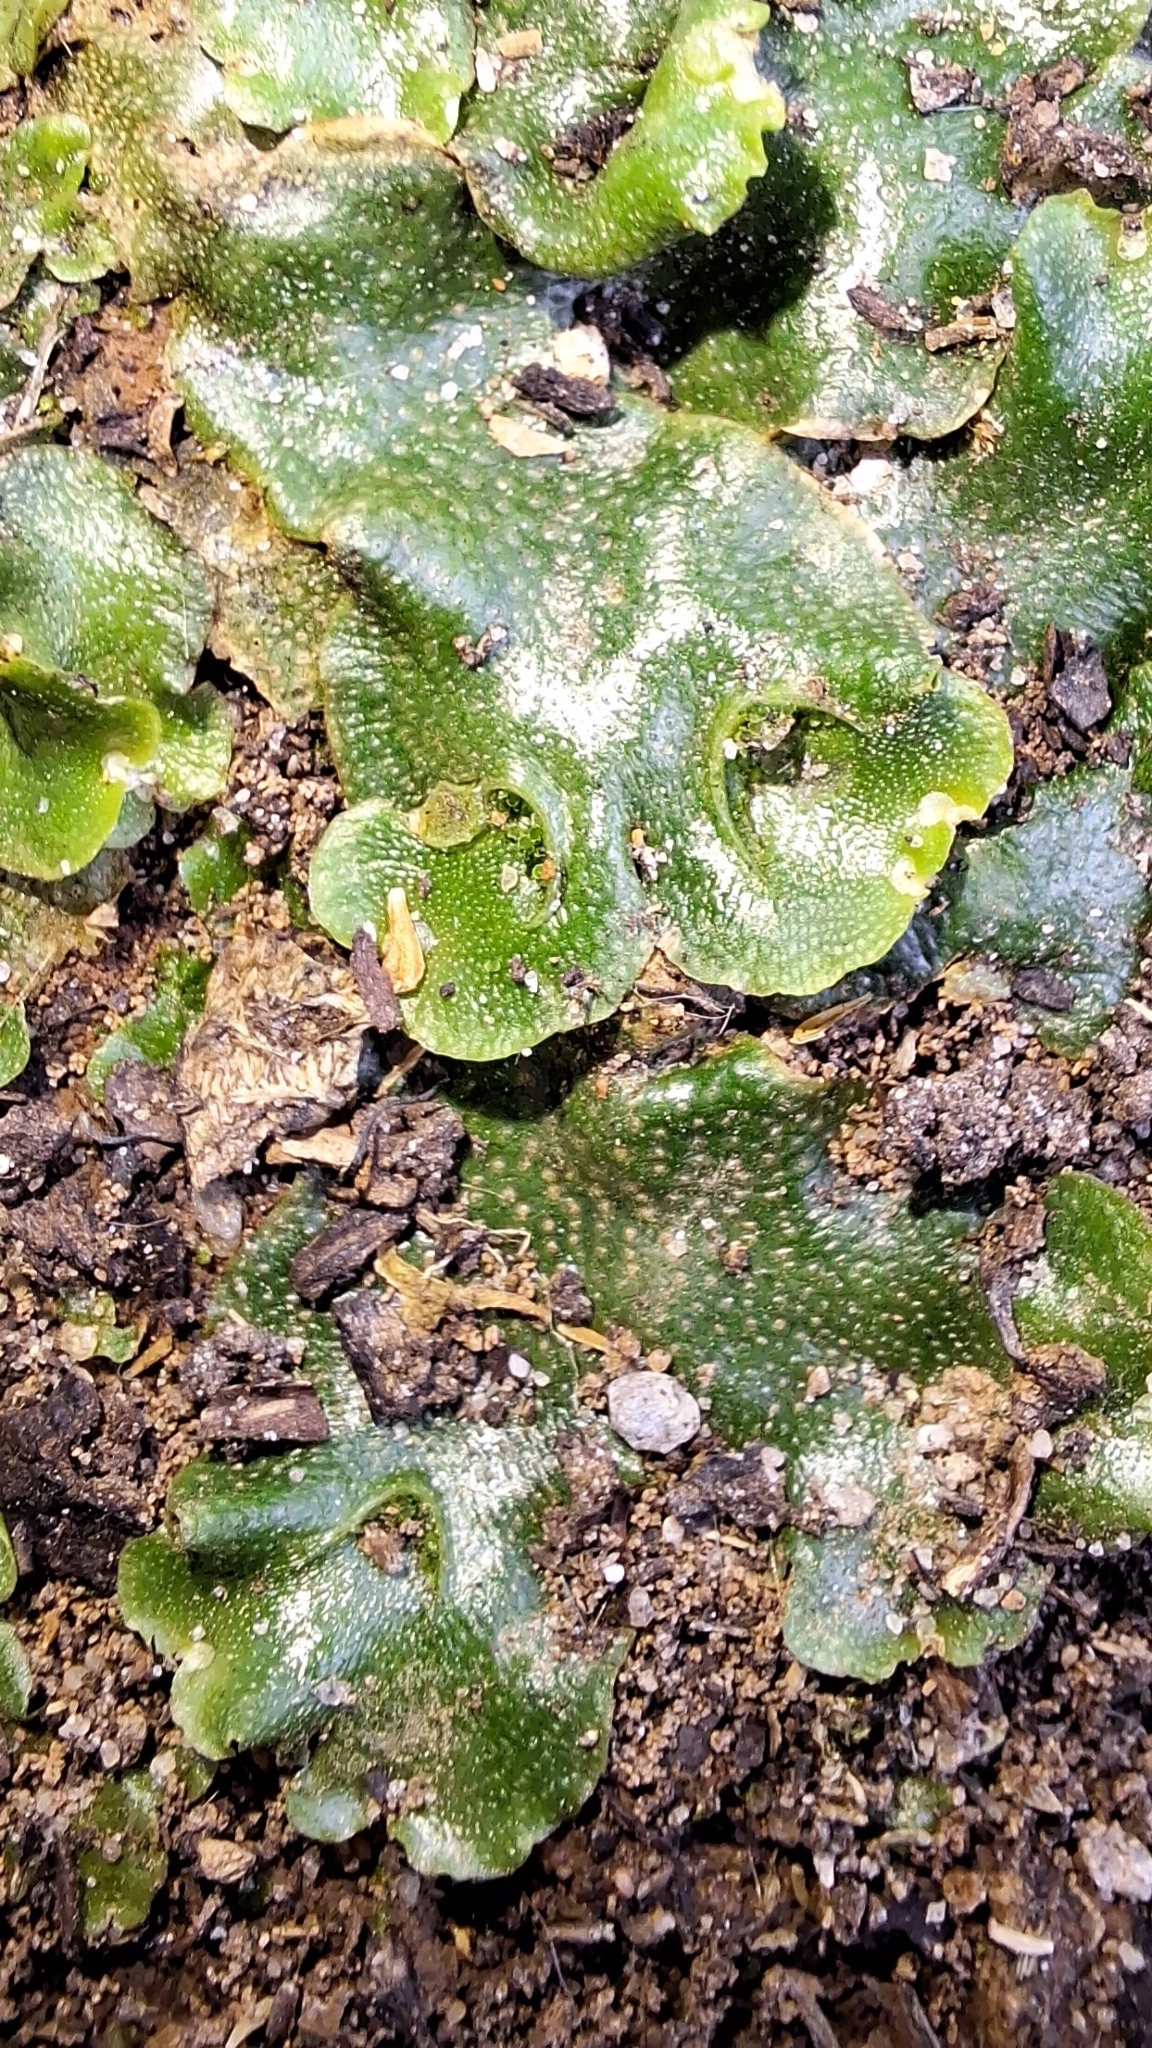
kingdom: Plantae
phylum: Marchantiophyta
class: Marchantiopsida
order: Lunulariales
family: Lunulariaceae
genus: Lunularia
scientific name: Lunularia cruciata
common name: Crescent-cup liverwort
